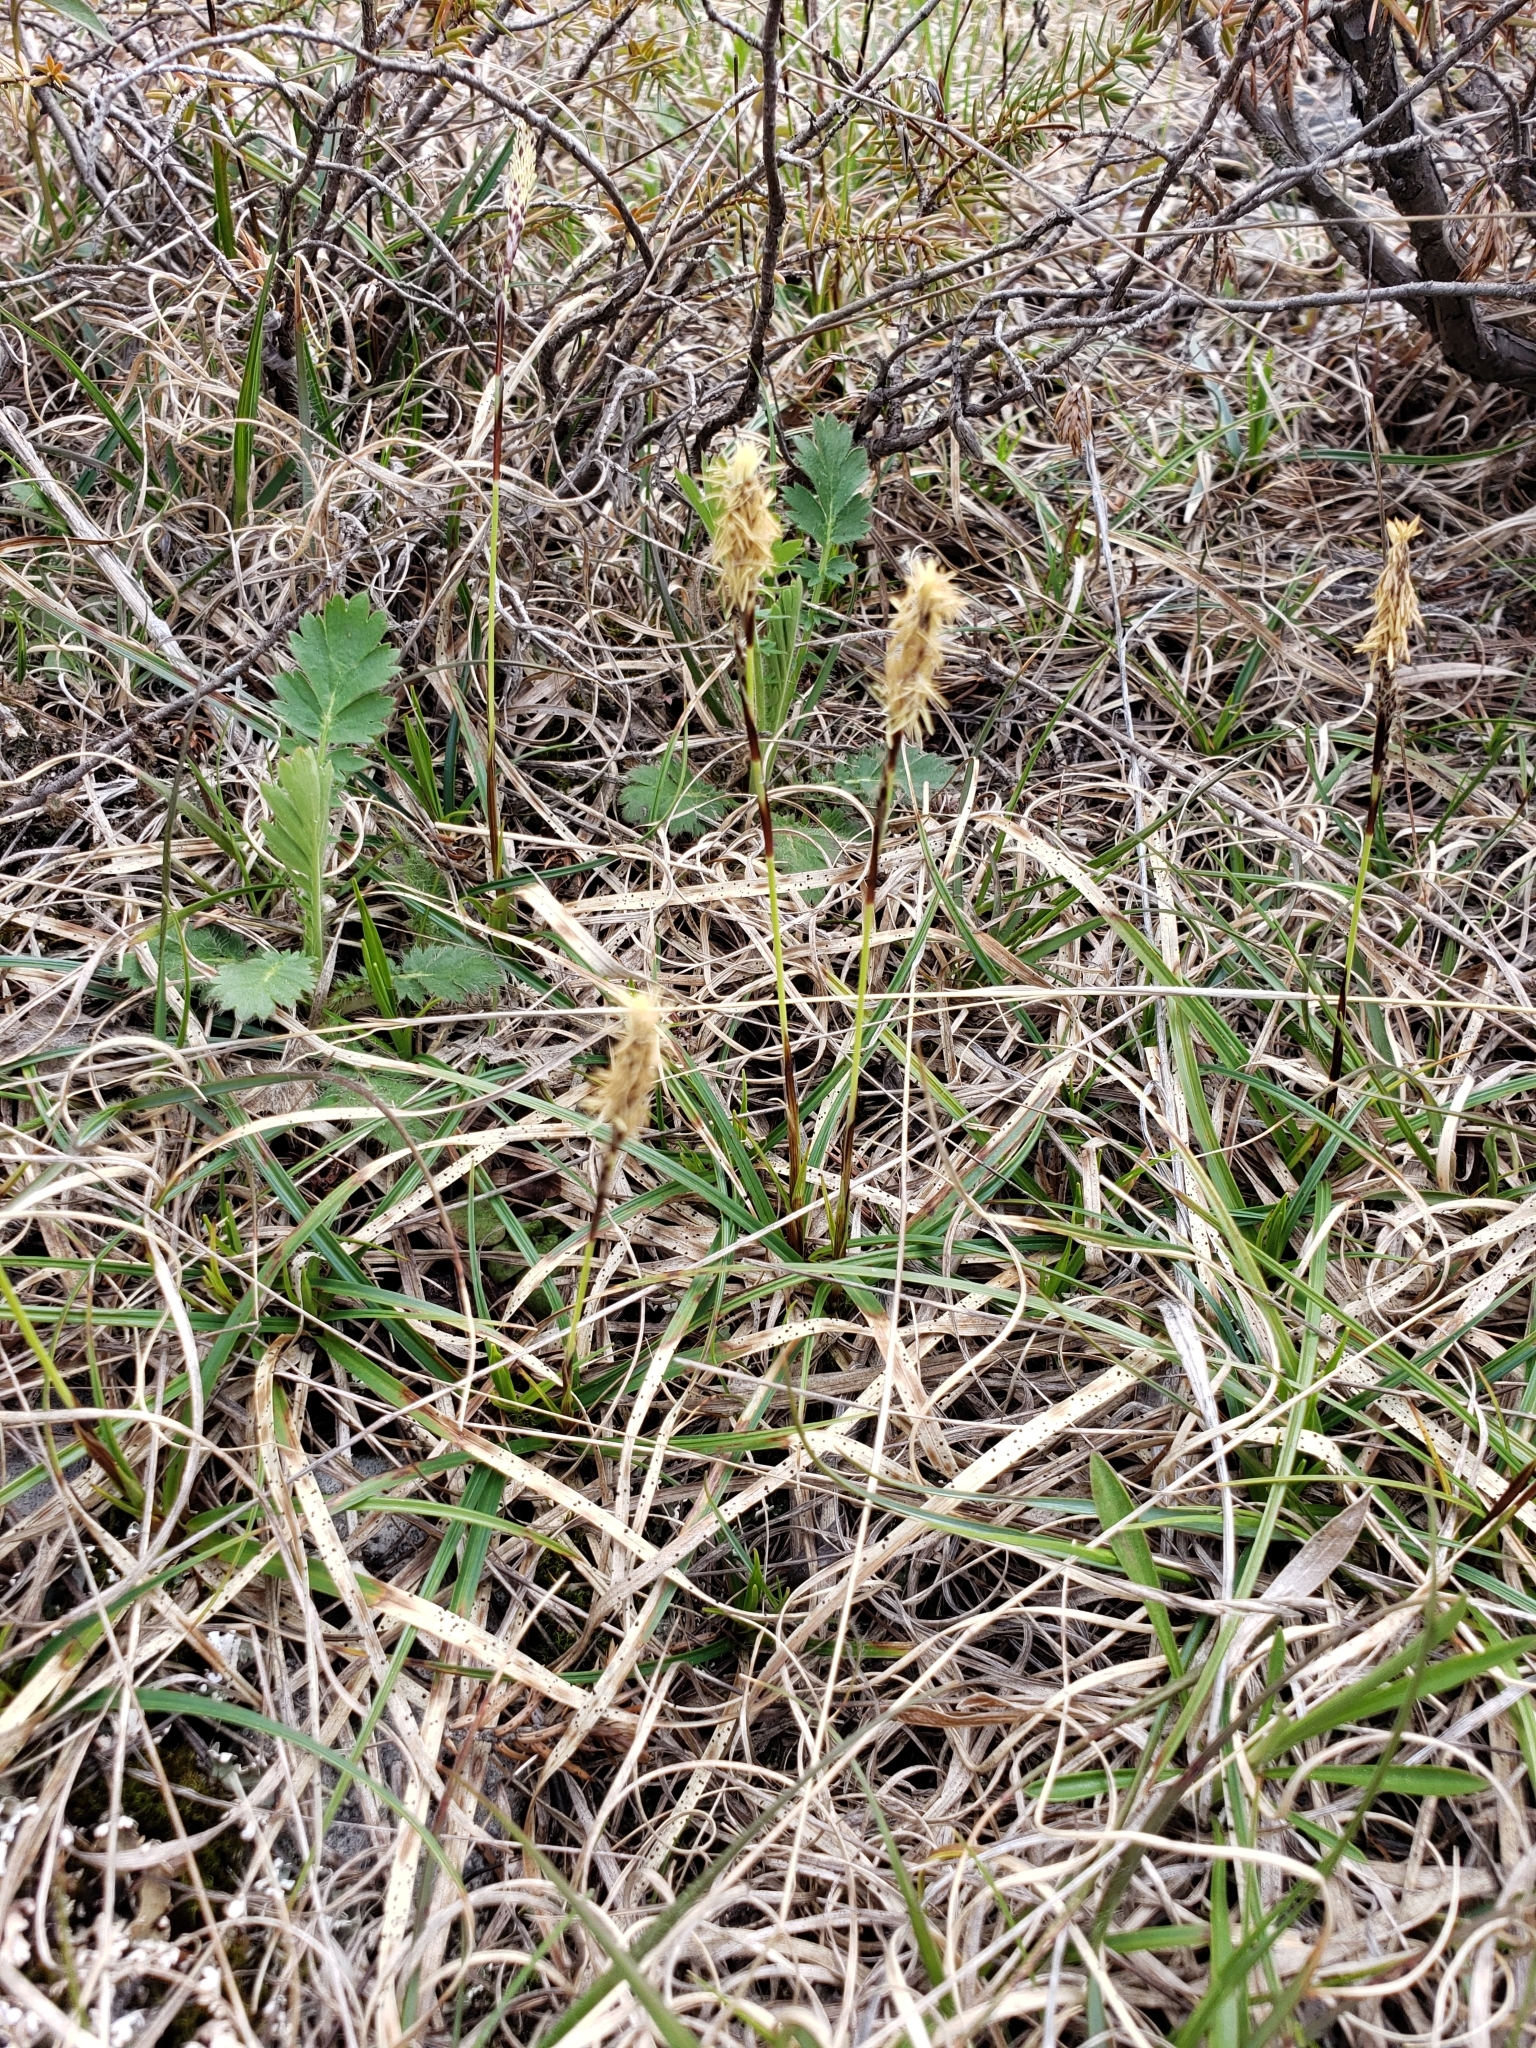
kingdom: Plantae
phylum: Tracheophyta
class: Liliopsida
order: Poales
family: Cyperaceae
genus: Carex
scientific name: Carex richardsonii
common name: Prairie hummock sedge
